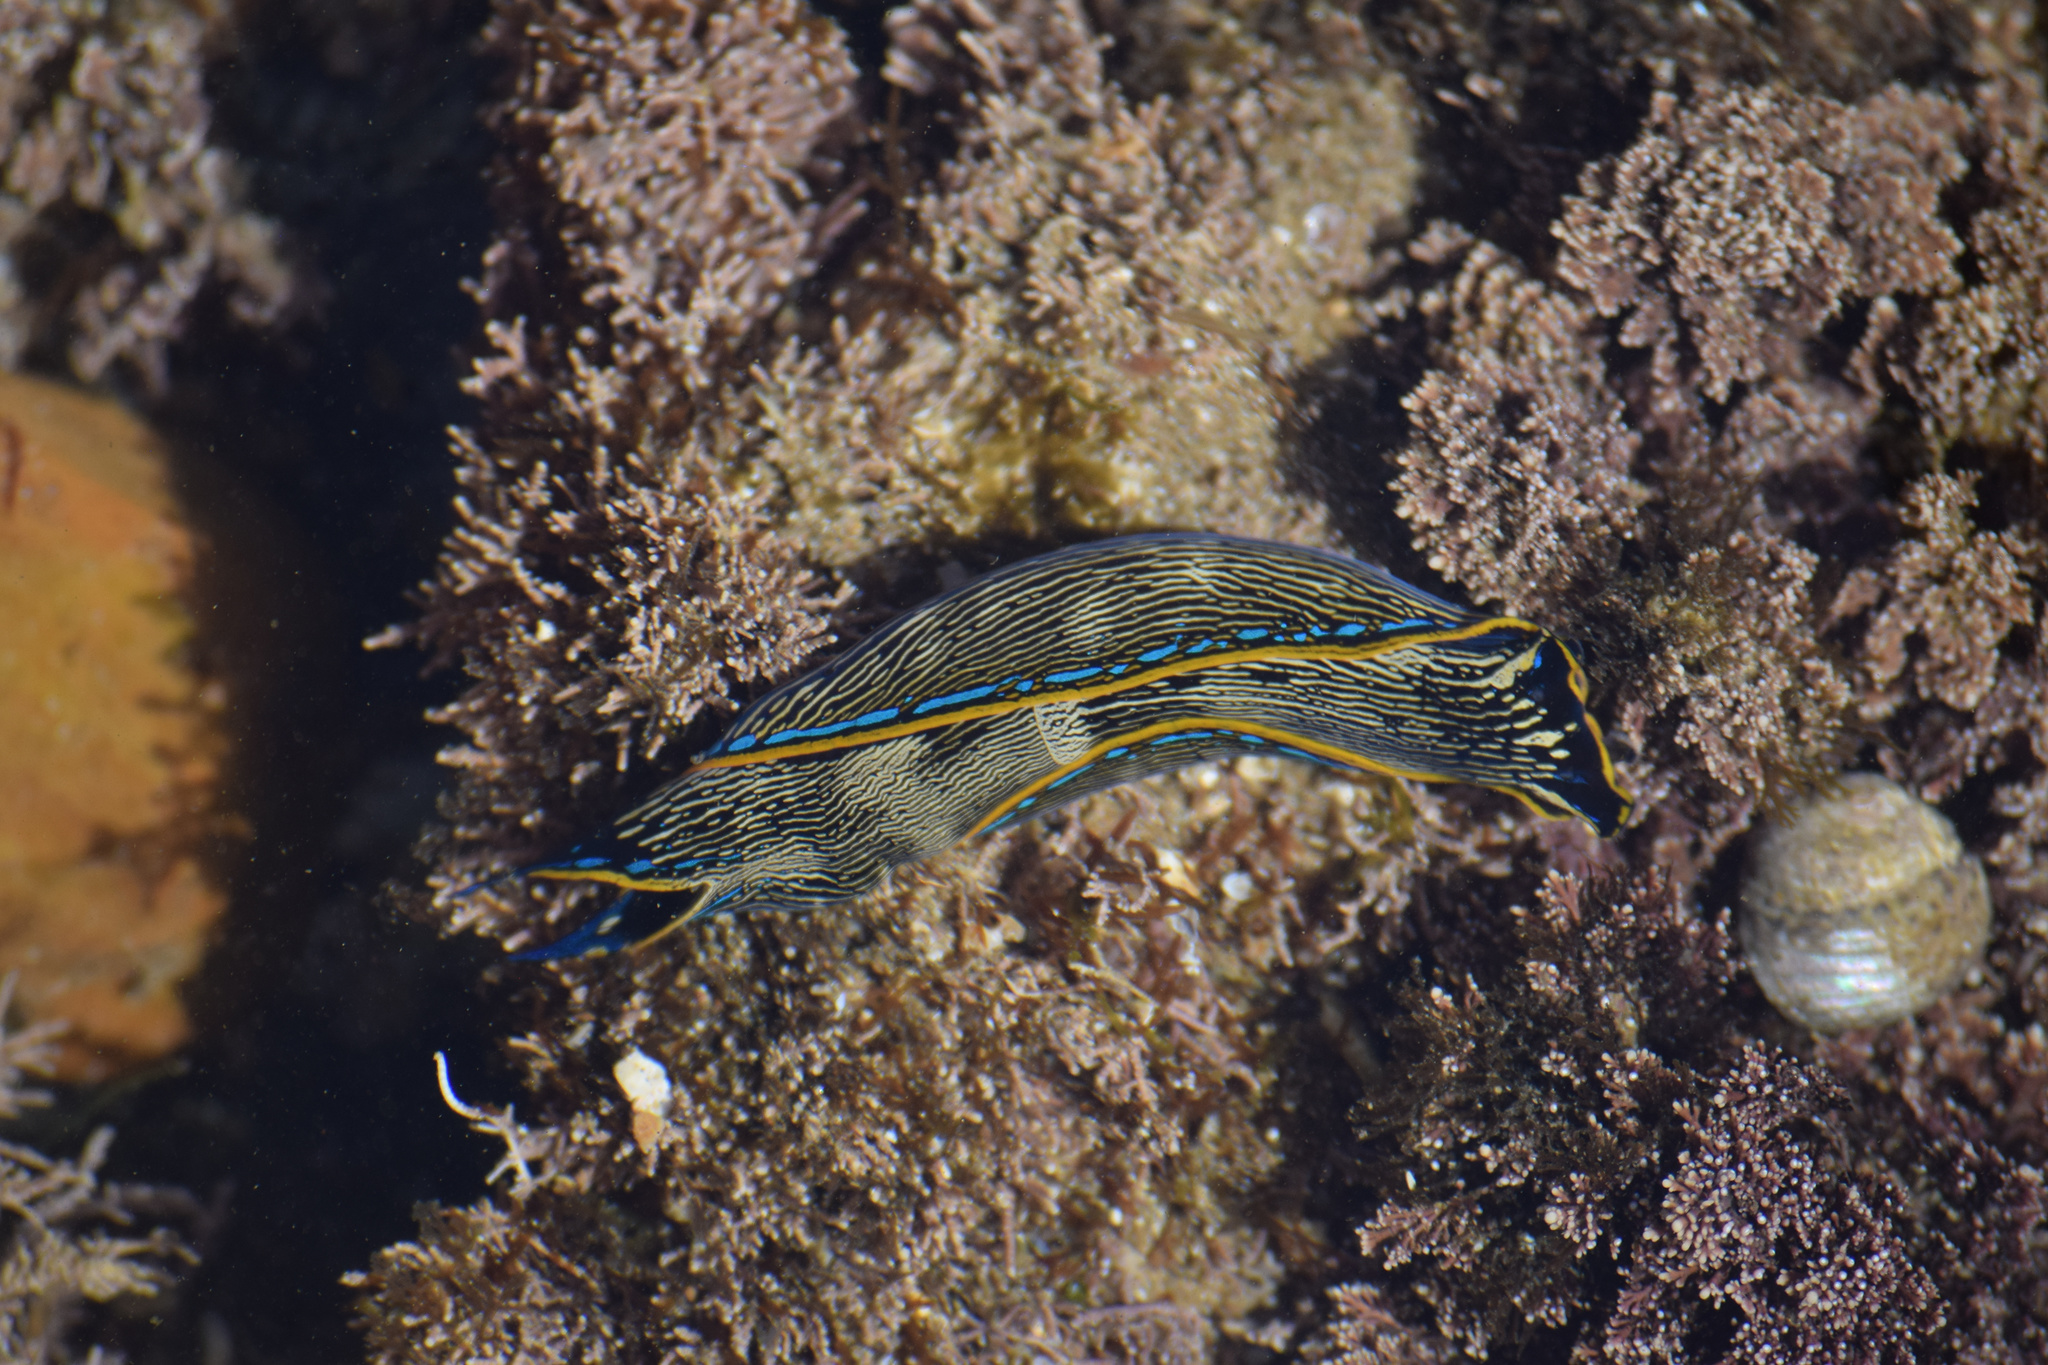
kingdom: Animalia
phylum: Mollusca
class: Gastropoda
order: Cephalaspidea
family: Aglajidae
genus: Navanax
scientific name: Navanax inermis
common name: California aglaja
